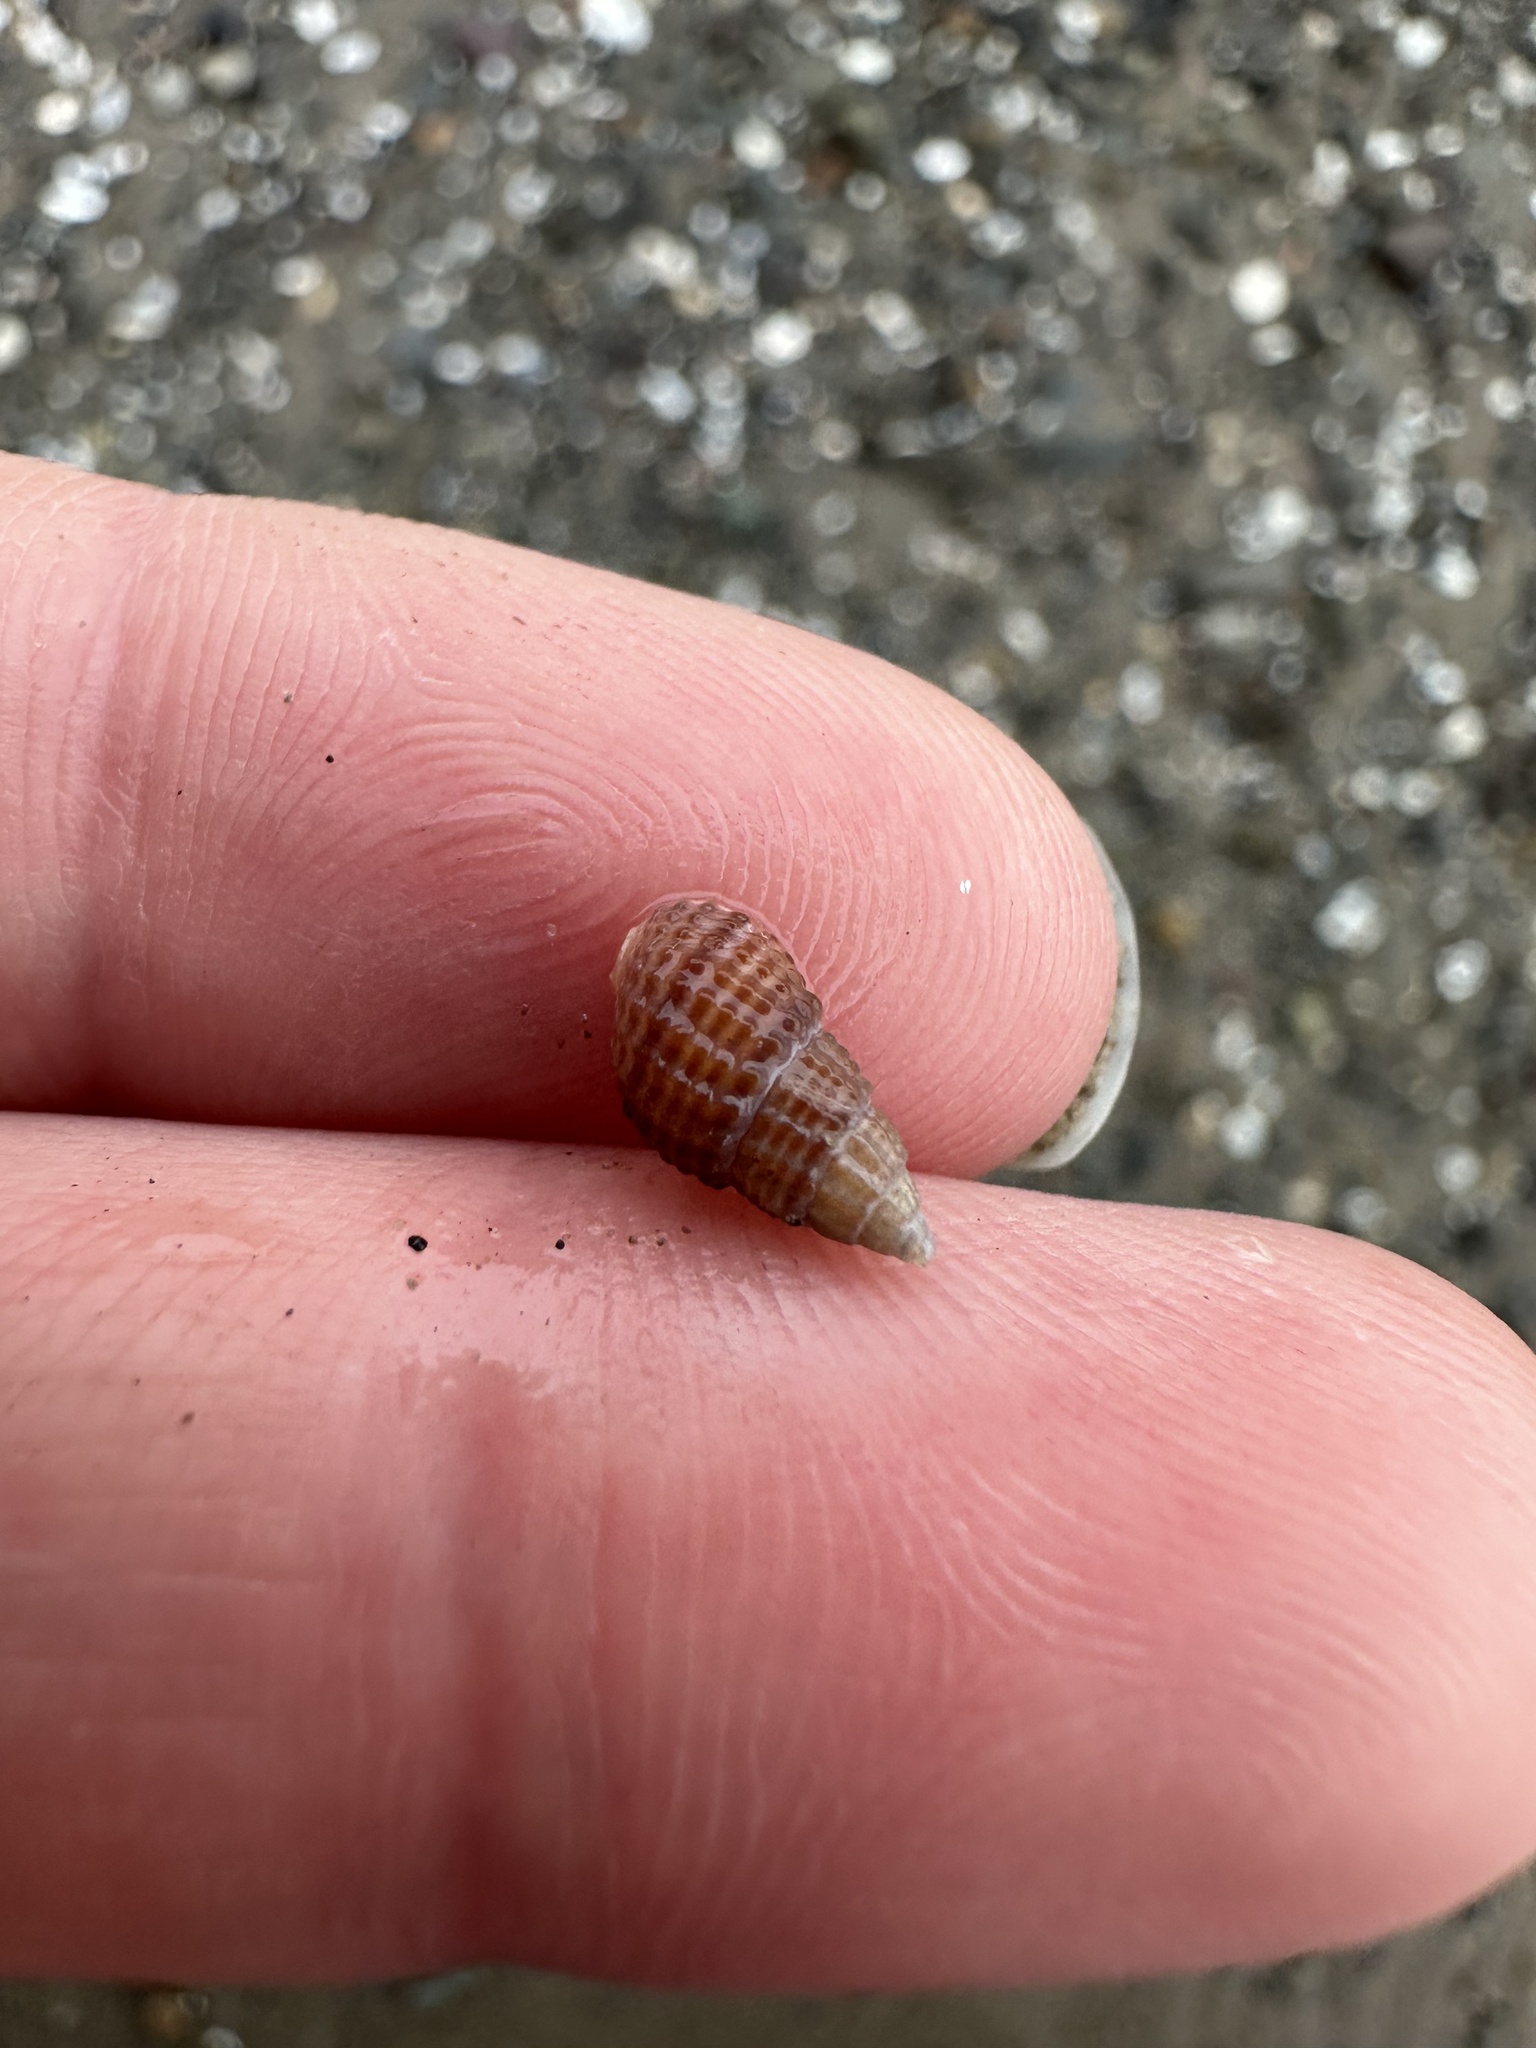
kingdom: Animalia
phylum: Mollusca
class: Gastropoda
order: Neogastropoda
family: Nassariidae
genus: Ilyanassa
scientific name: Ilyanassa trivittata
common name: Three-line mudsnail
